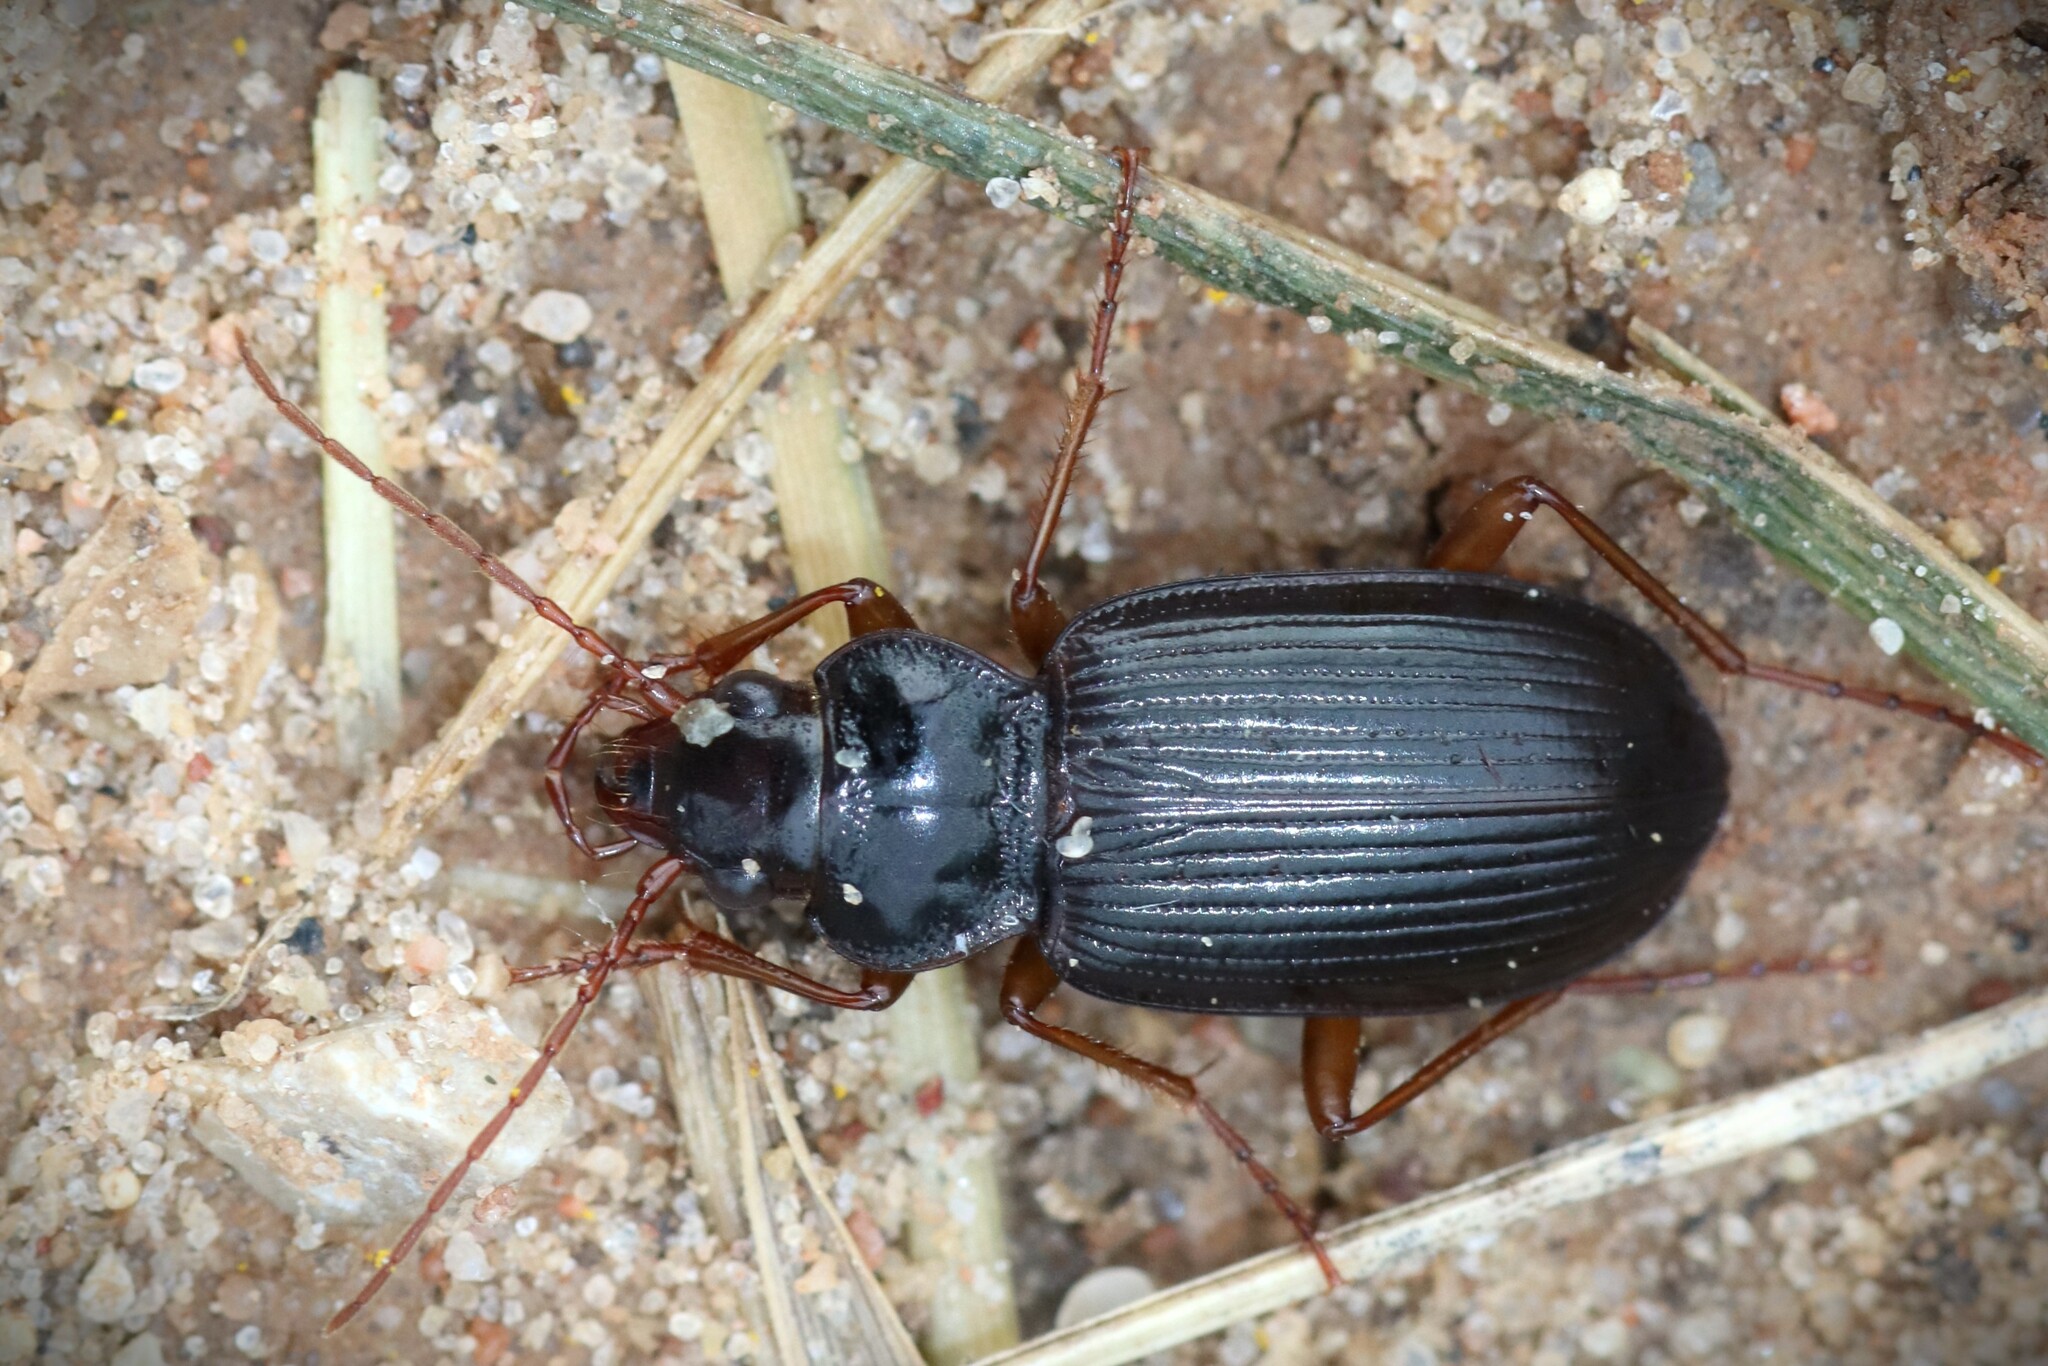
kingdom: Animalia
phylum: Arthropoda
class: Insecta
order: Coleoptera
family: Carabidae
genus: Nebria
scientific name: Nebria brevicollis
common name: Short-necked gazelle beetle
